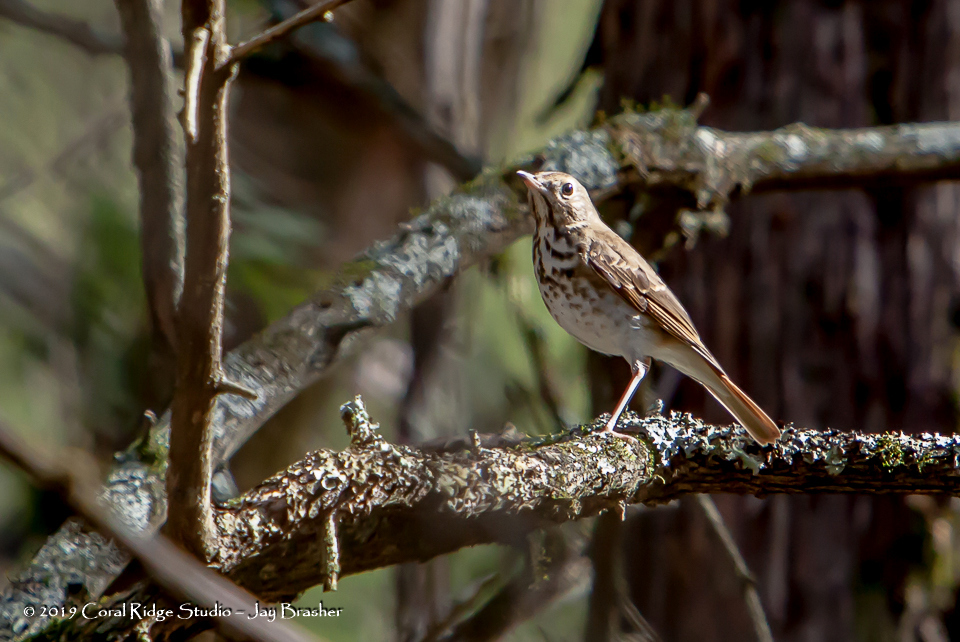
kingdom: Animalia
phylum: Chordata
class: Aves
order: Passeriformes
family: Turdidae
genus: Catharus
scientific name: Catharus guttatus
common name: Hermit thrush
